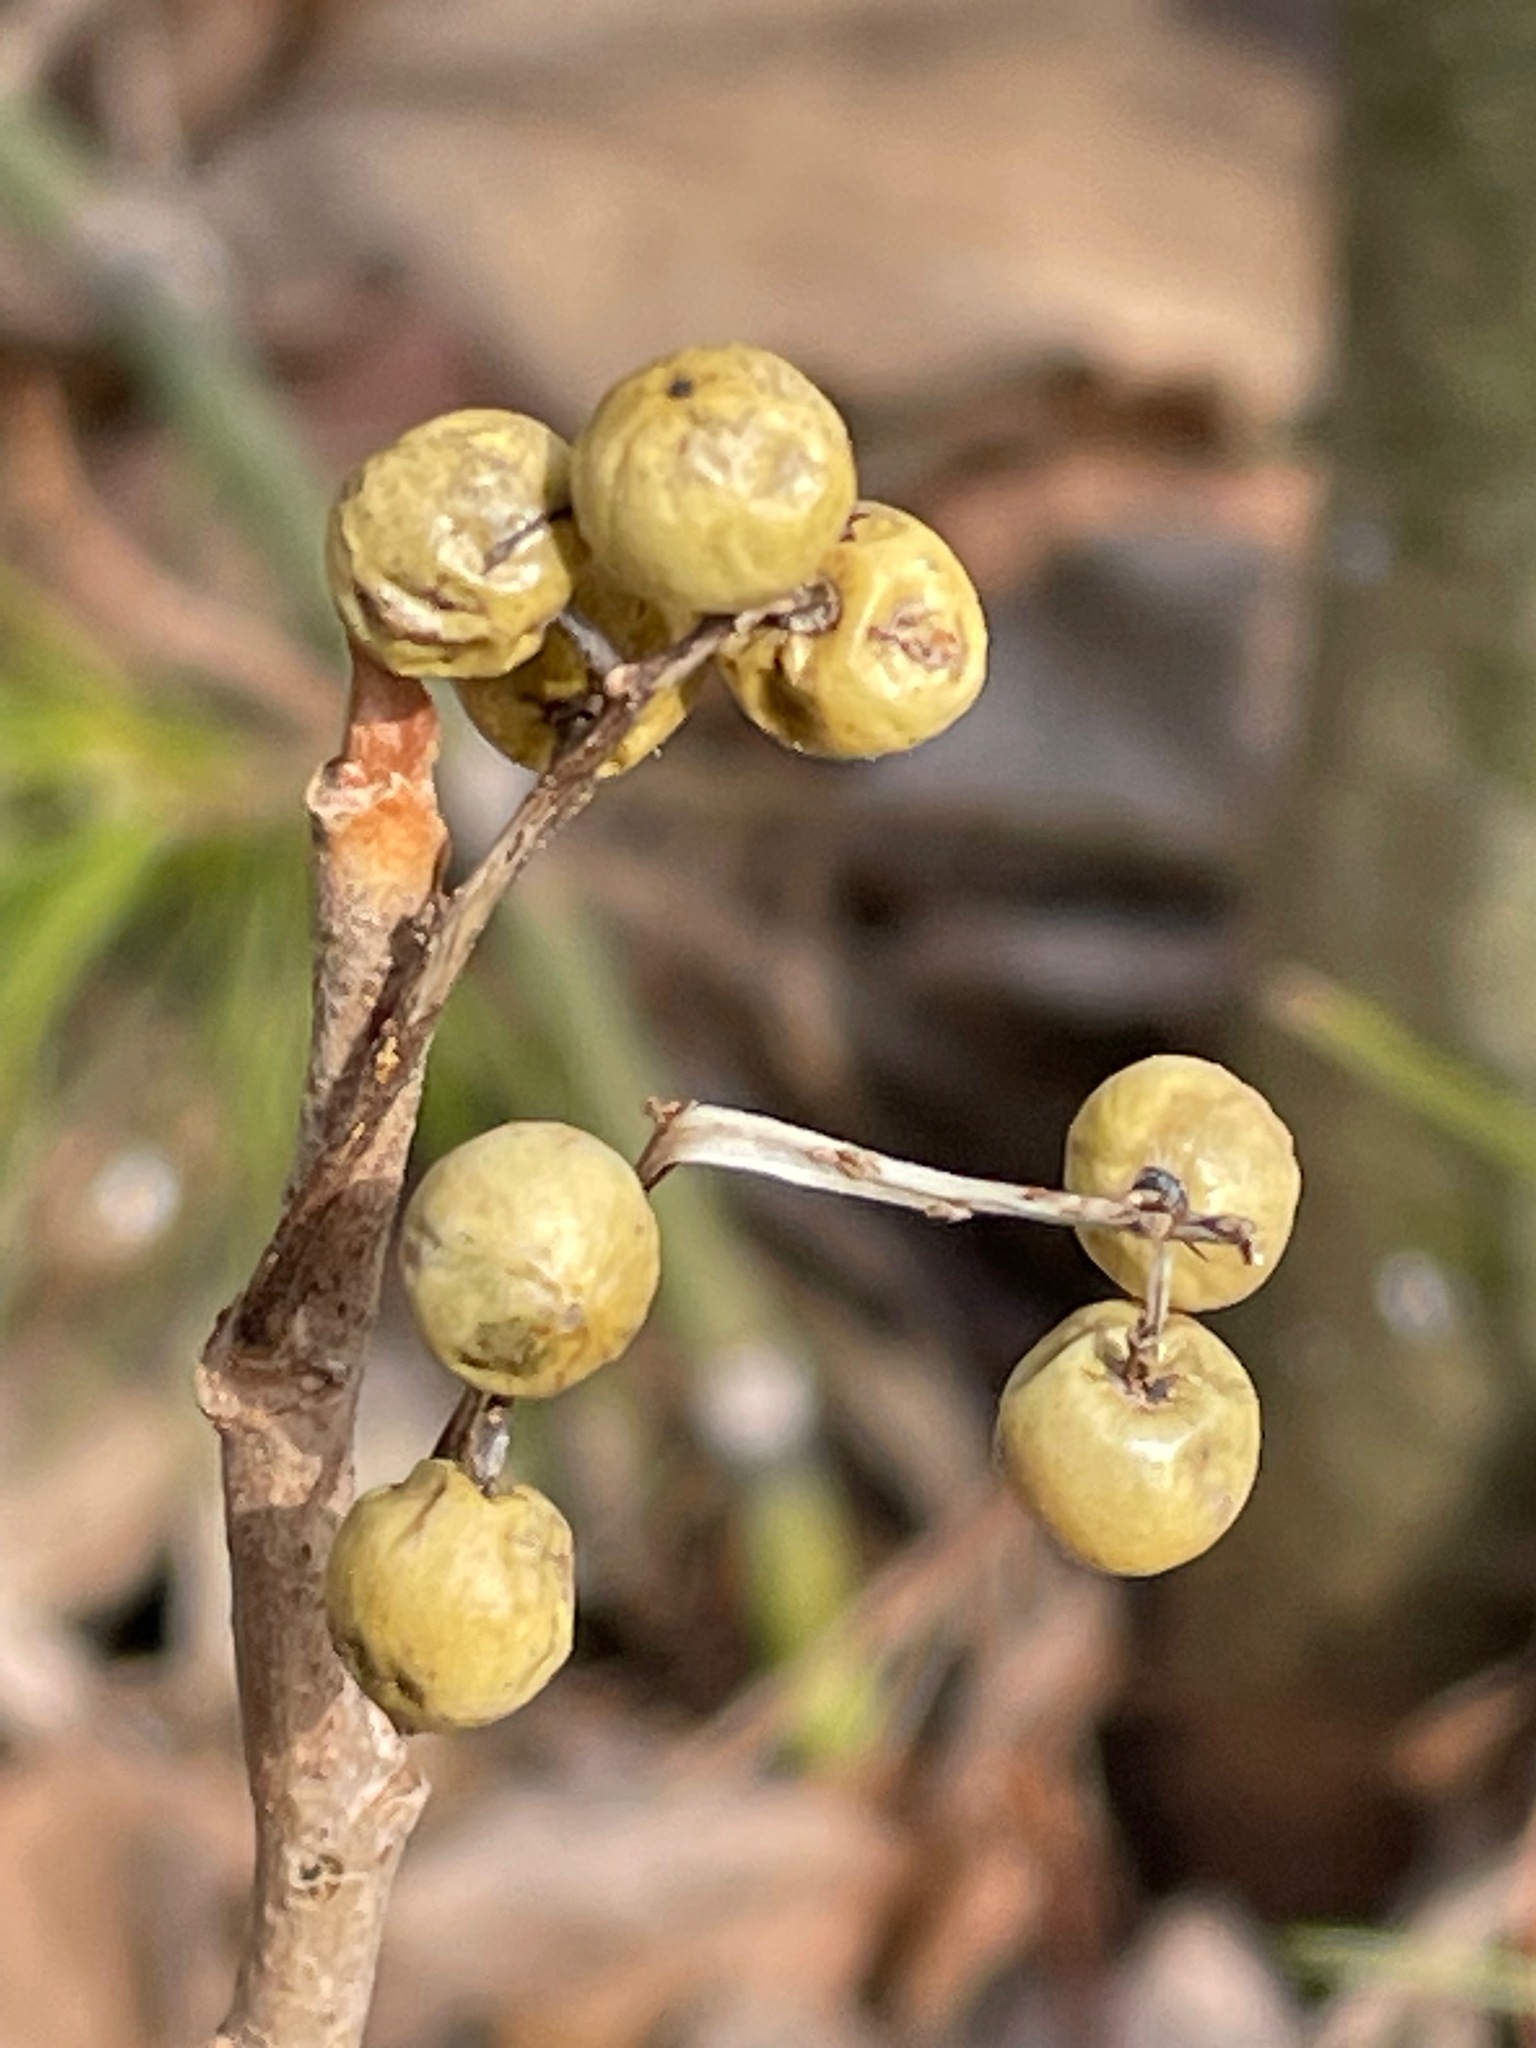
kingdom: Plantae
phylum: Tracheophyta
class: Magnoliopsida
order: Sapindales
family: Anacardiaceae
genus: Toxicodendron
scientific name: Toxicodendron rydbergii
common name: Rydberg's poison-ivy
